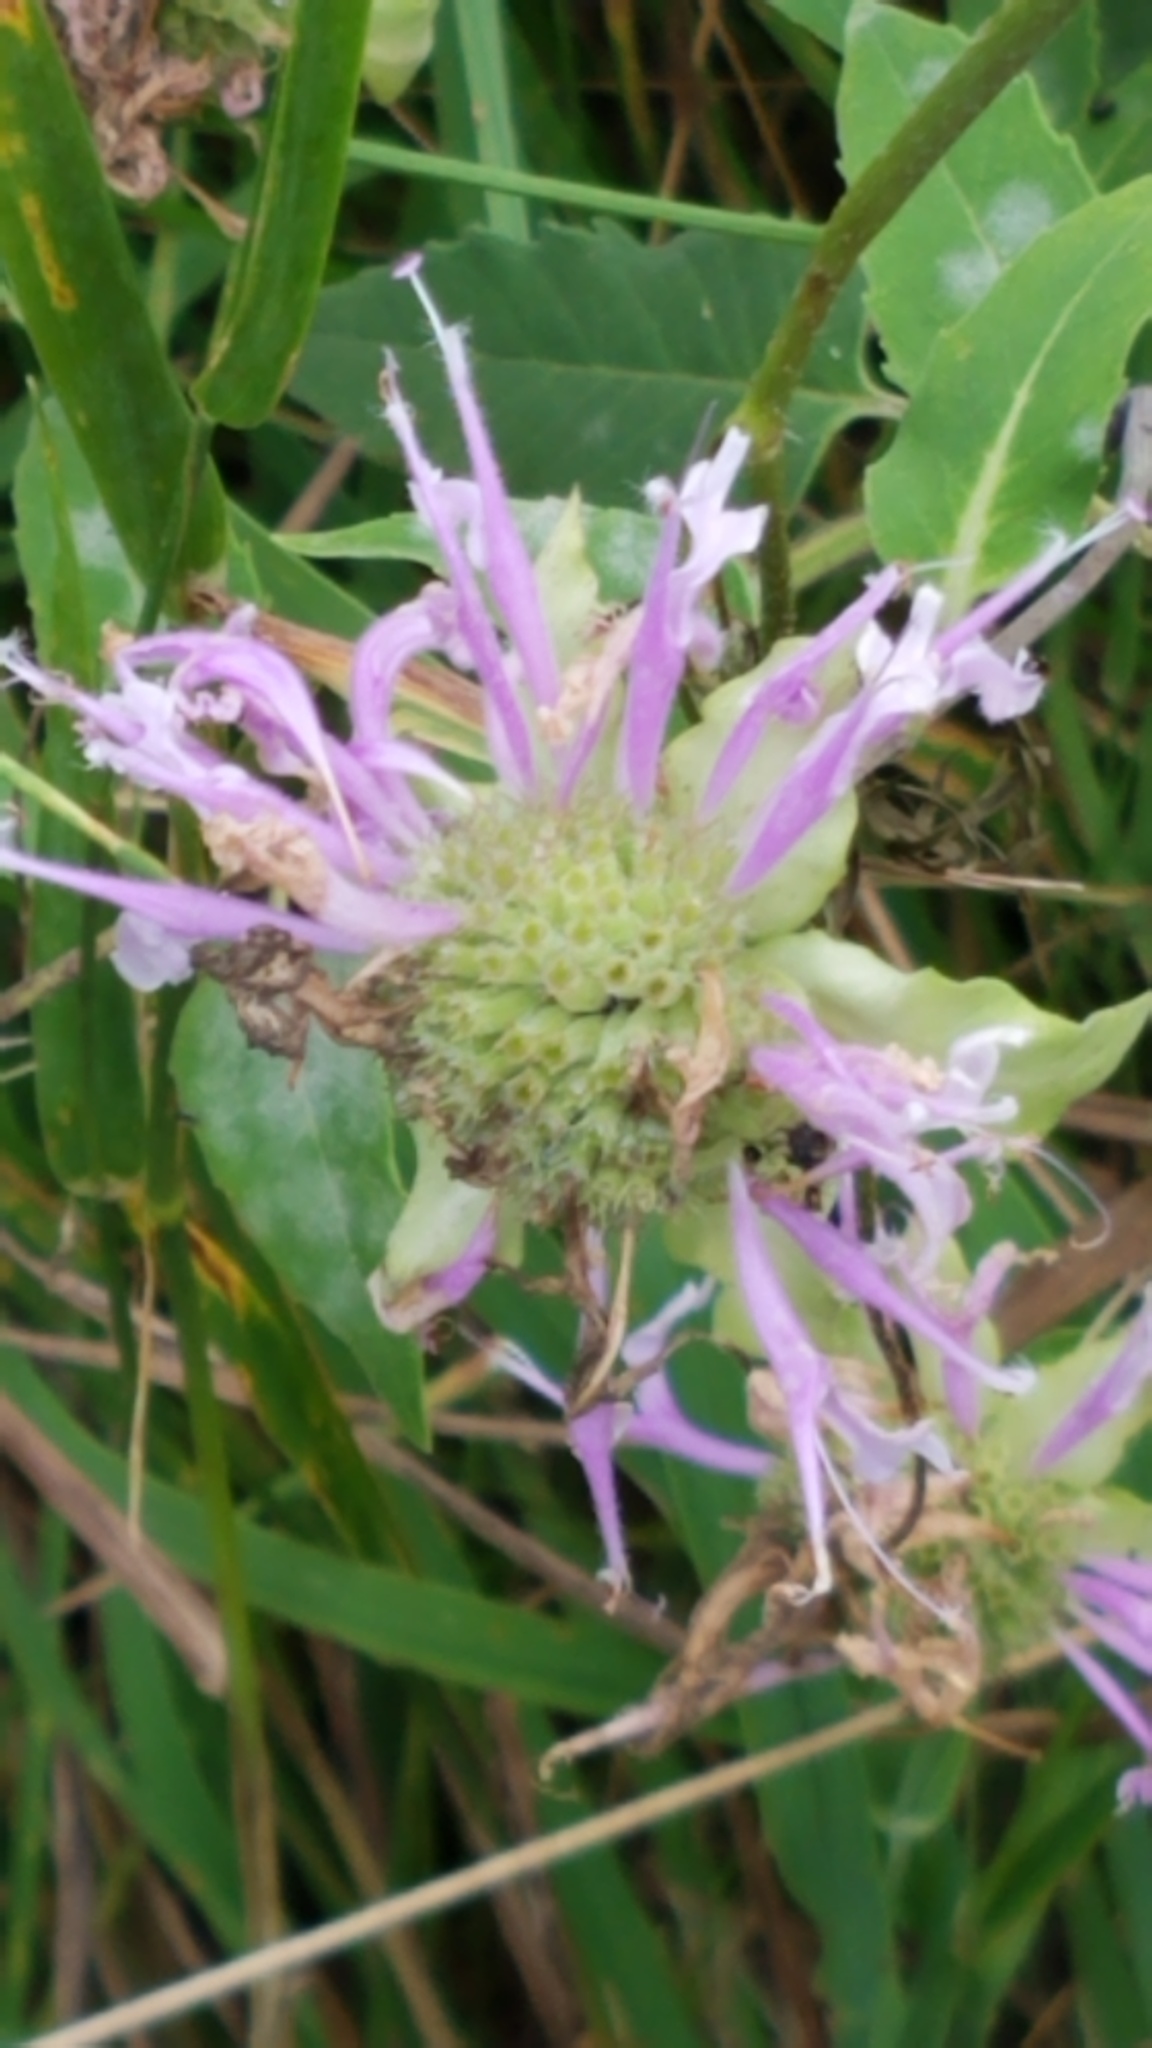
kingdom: Plantae
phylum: Tracheophyta
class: Magnoliopsida
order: Lamiales
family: Lamiaceae
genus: Monarda
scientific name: Monarda fistulosa
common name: Purple beebalm
